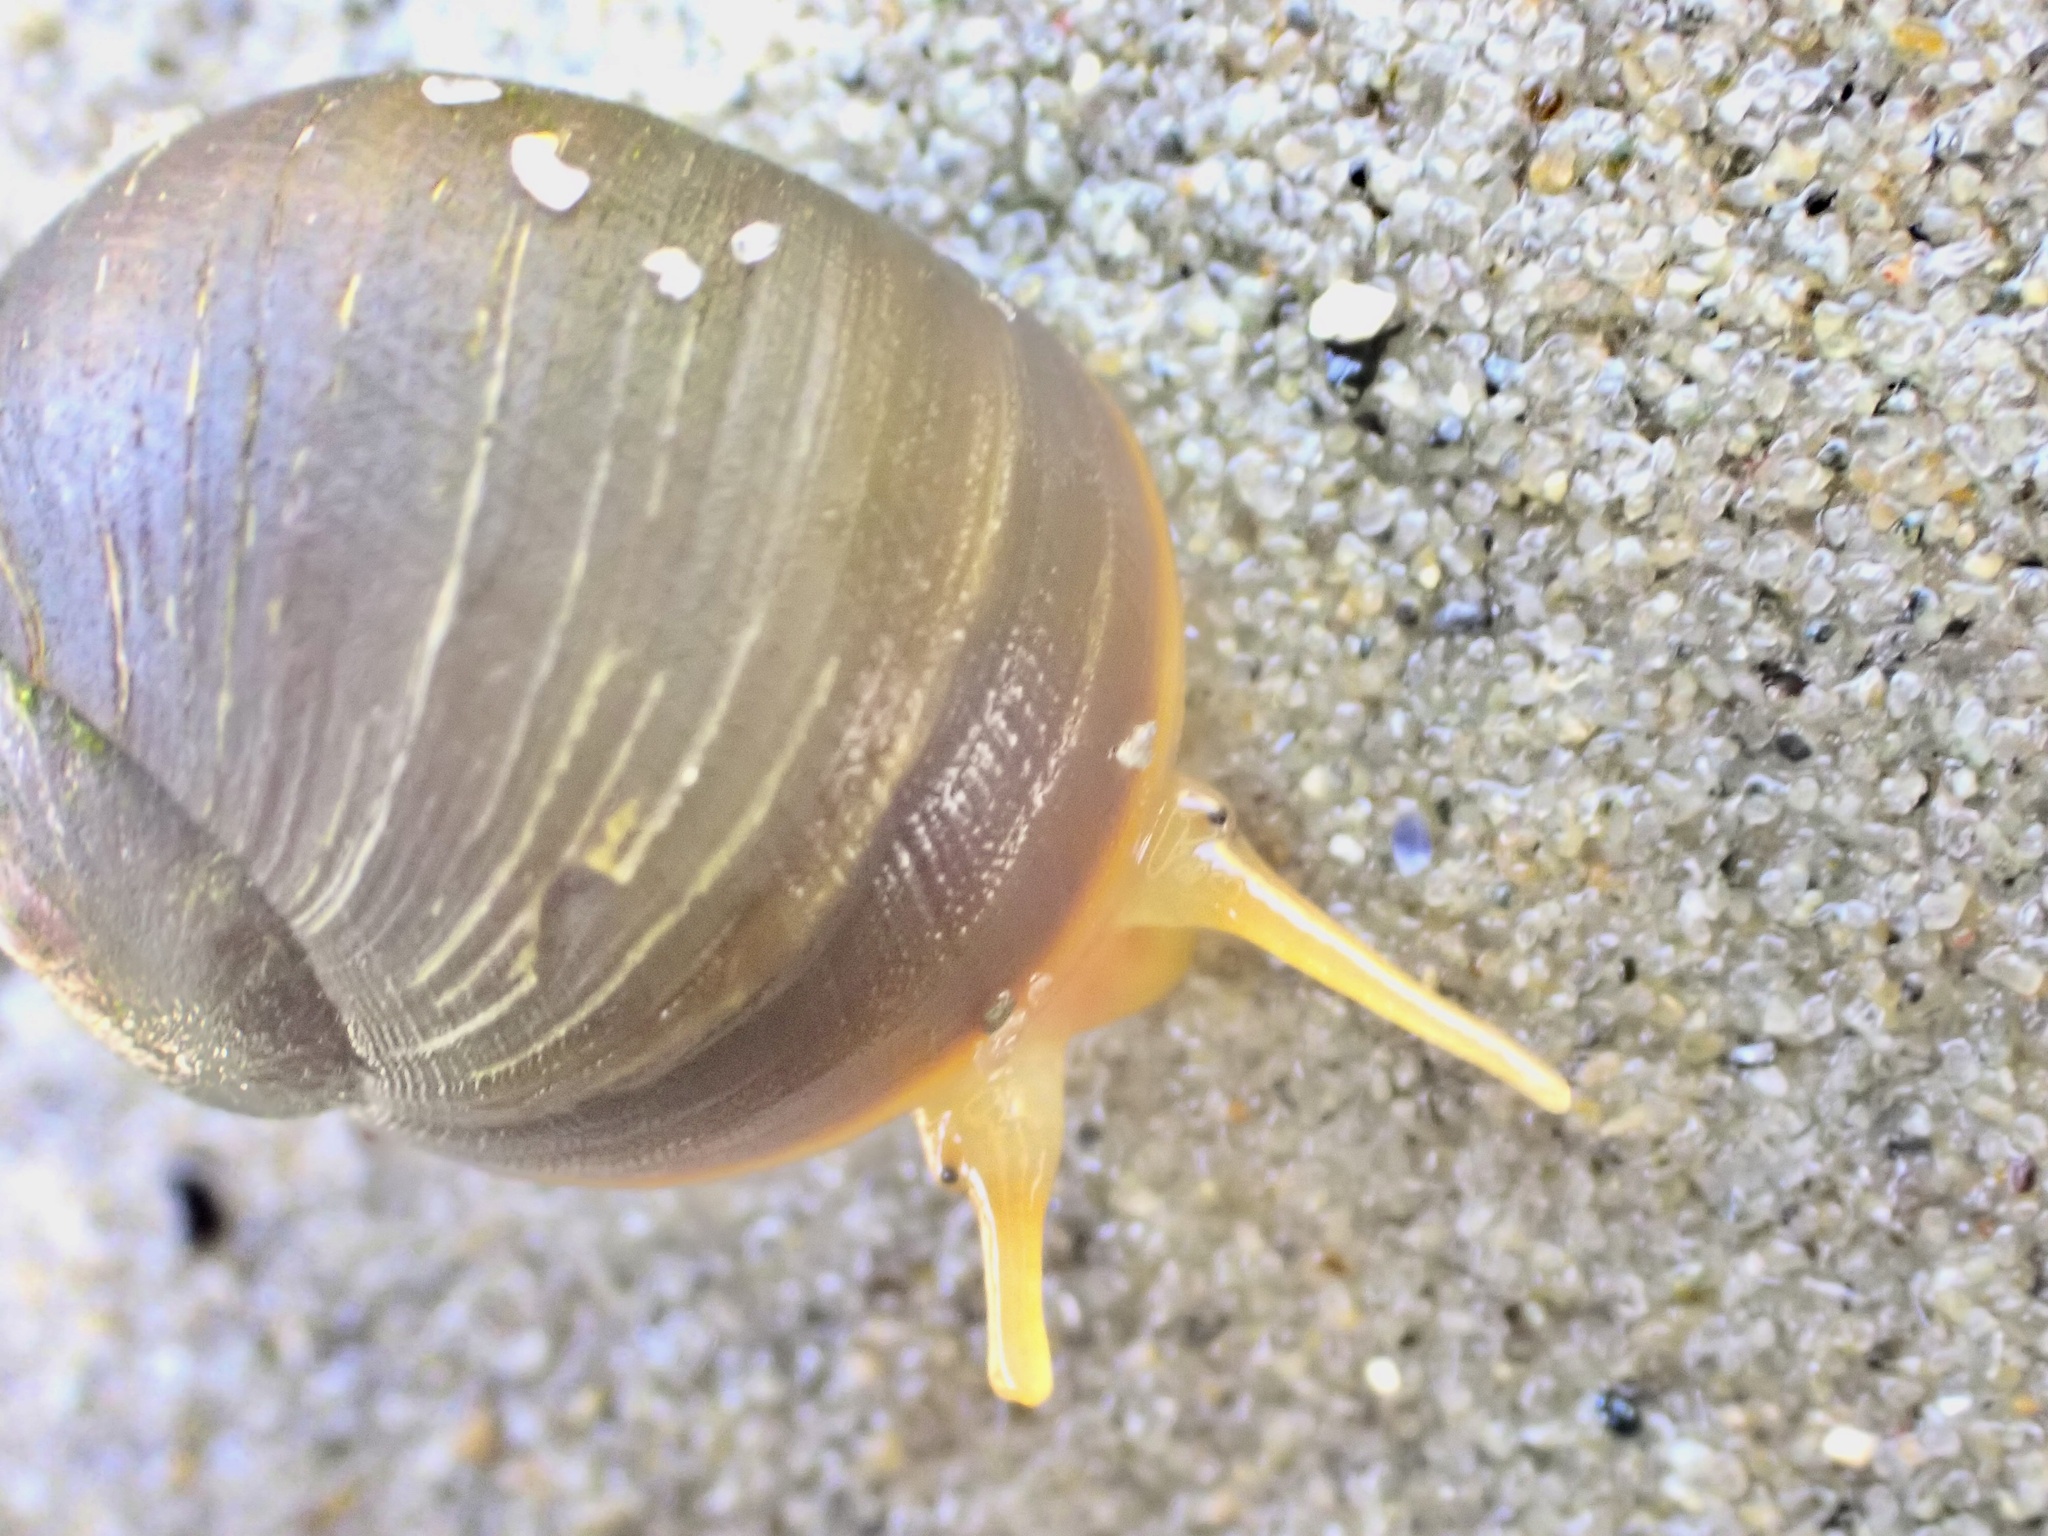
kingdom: Animalia
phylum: Mollusca
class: Gastropoda
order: Littorinimorpha
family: Littorinidae
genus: Littorina
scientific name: Littorina obtusata
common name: Flat periwinkle
